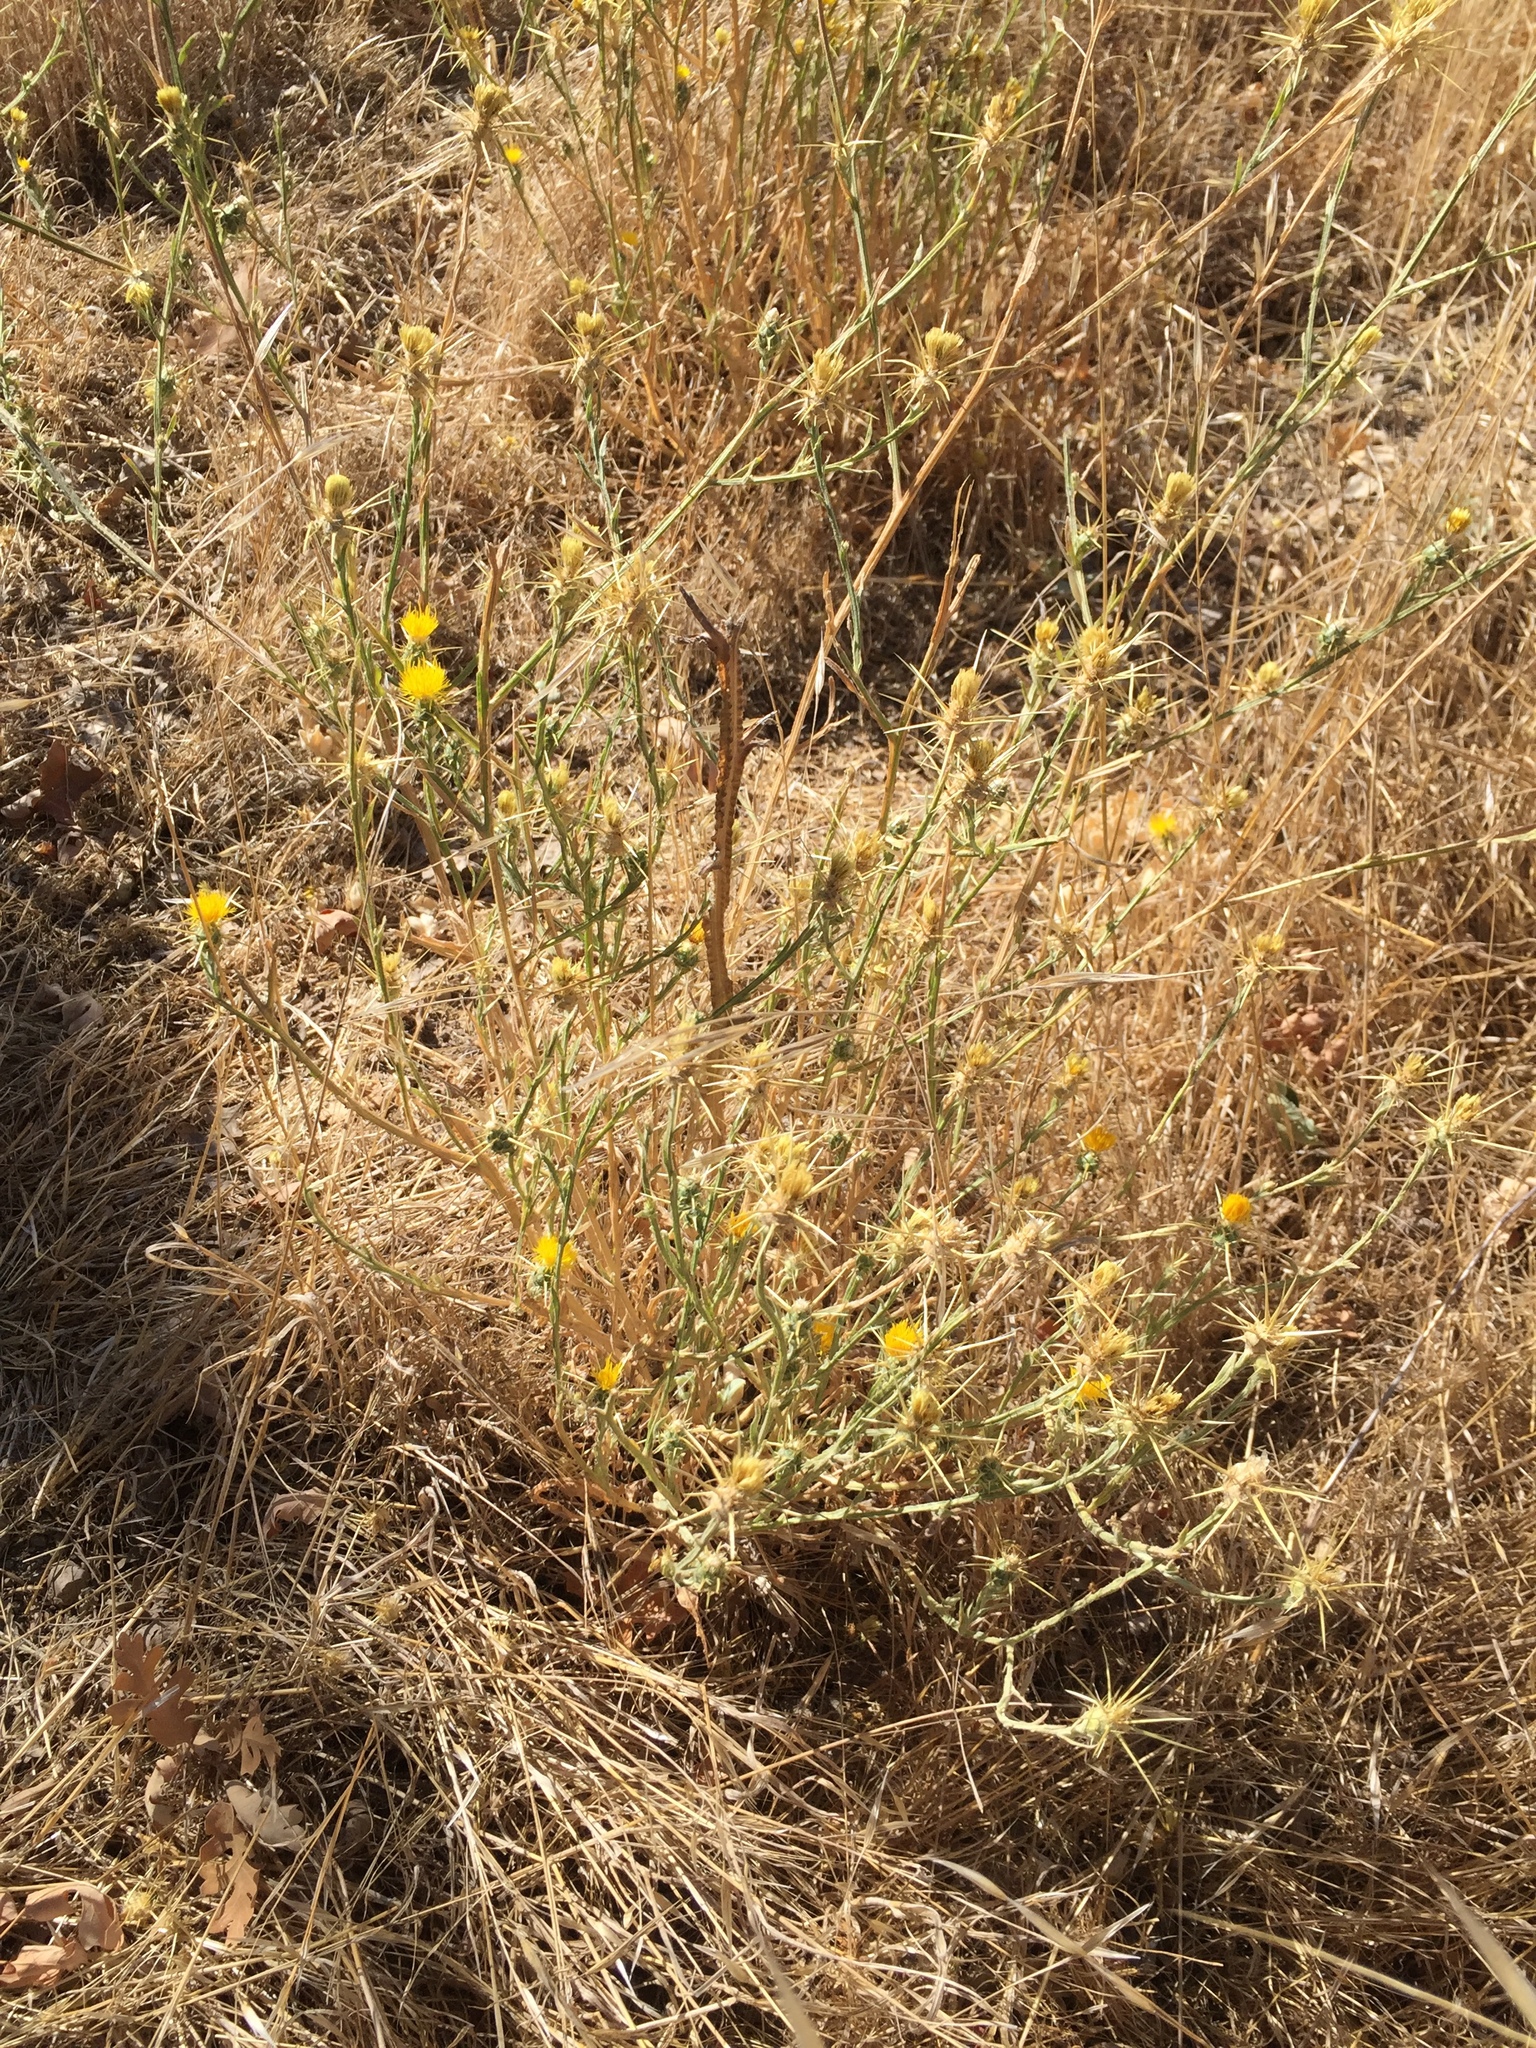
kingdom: Plantae
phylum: Tracheophyta
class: Magnoliopsida
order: Asterales
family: Asteraceae
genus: Centaurea
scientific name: Centaurea solstitialis
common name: Yellow star-thistle
